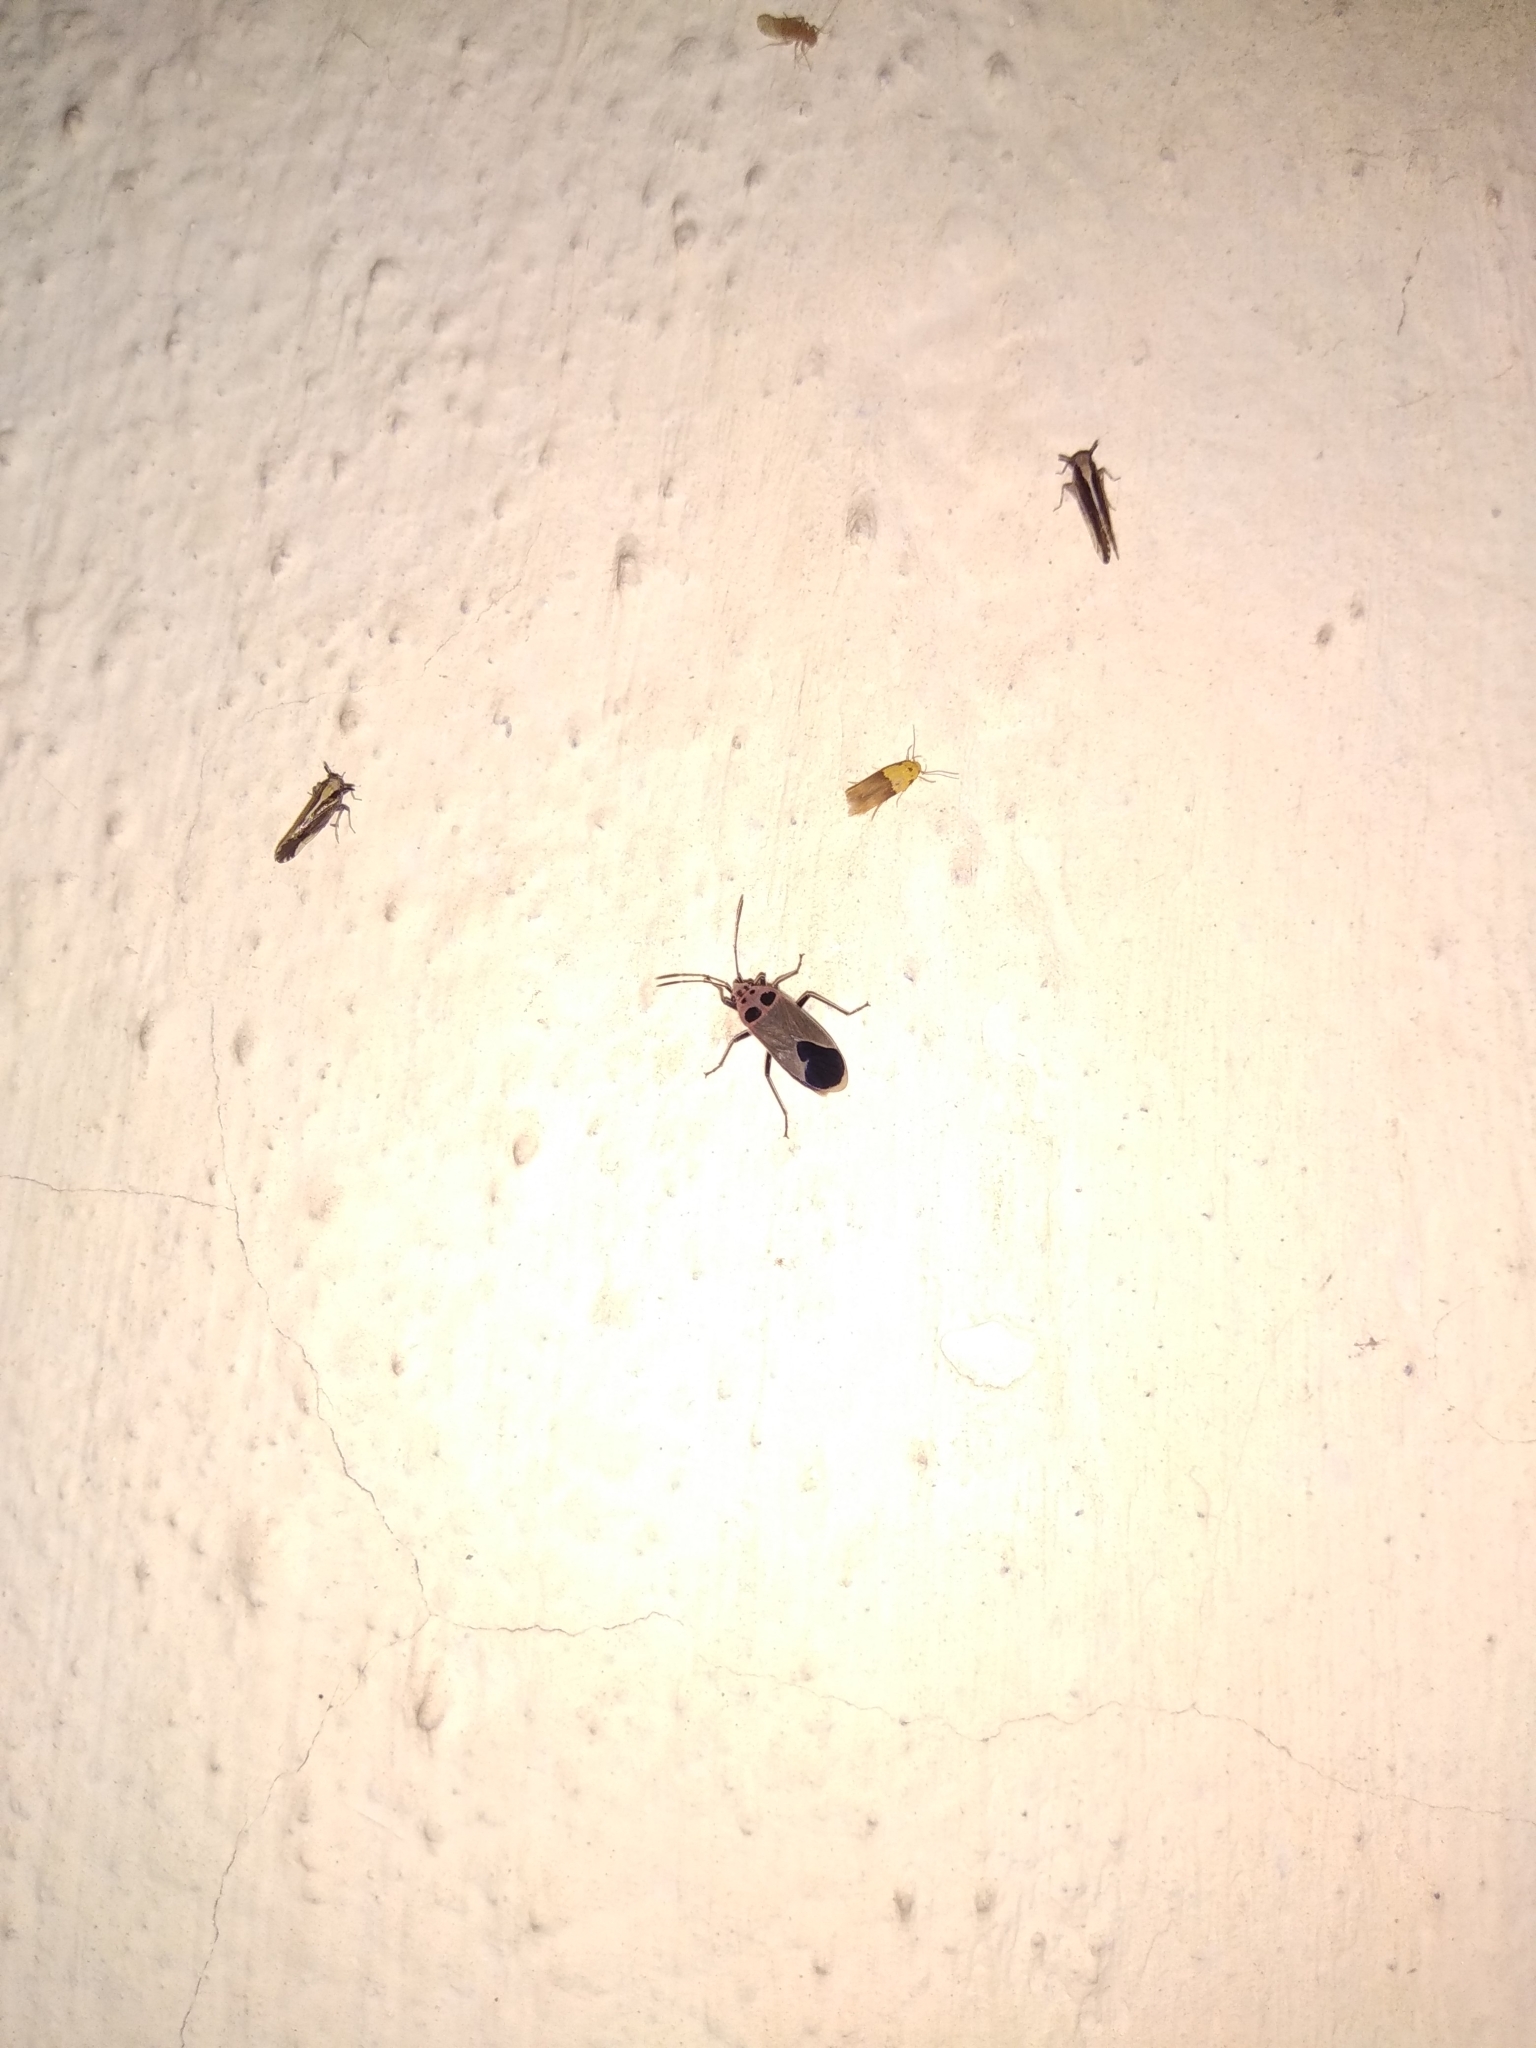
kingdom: Animalia
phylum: Arthropoda
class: Insecta
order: Hemiptera
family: Lygaeidae
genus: Graptostethus
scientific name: Graptostethus argentatus
